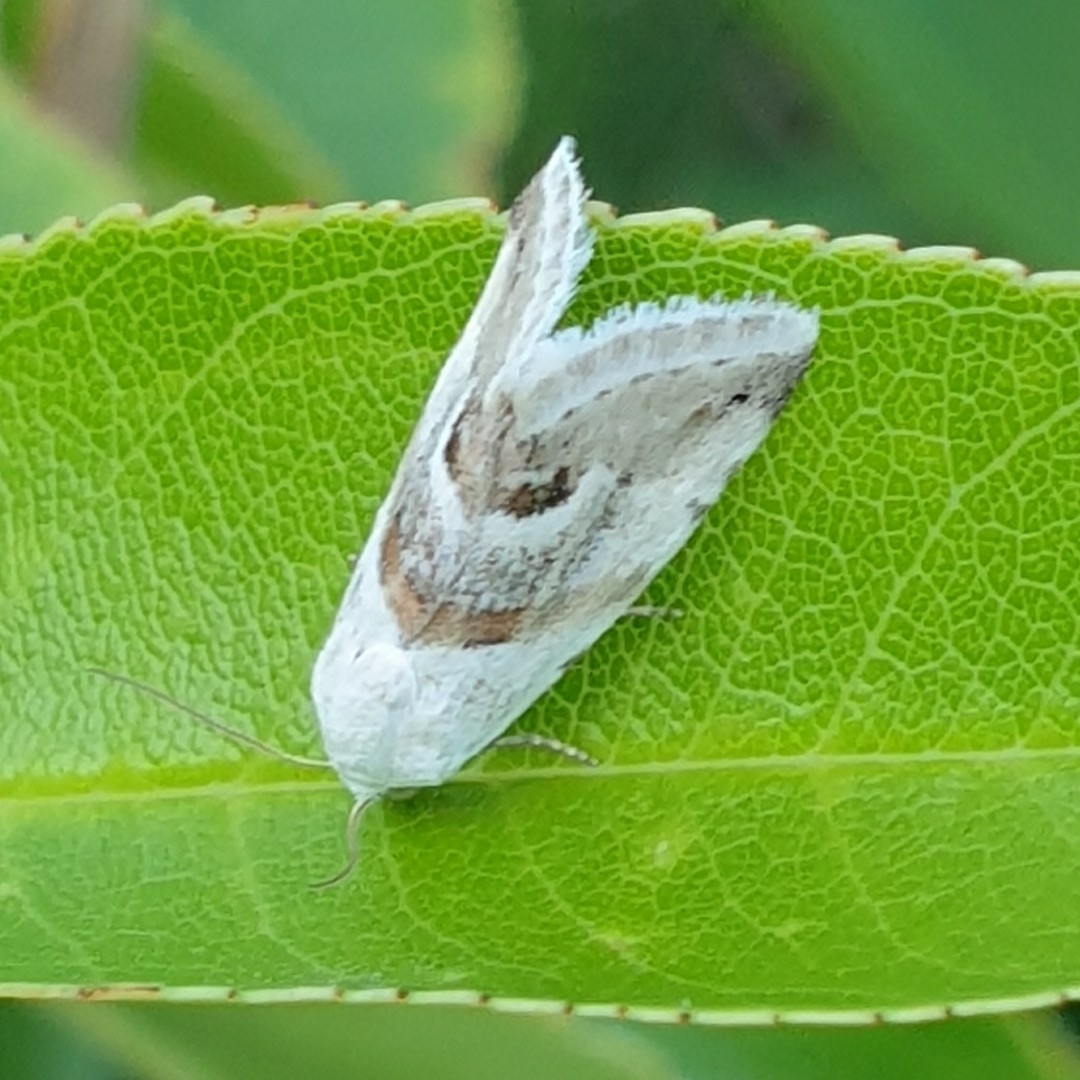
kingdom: Animalia
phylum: Arthropoda
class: Insecta
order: Lepidoptera
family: Noctuidae
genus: Eublemma
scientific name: Eublemma minutata
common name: Scarce marbled
